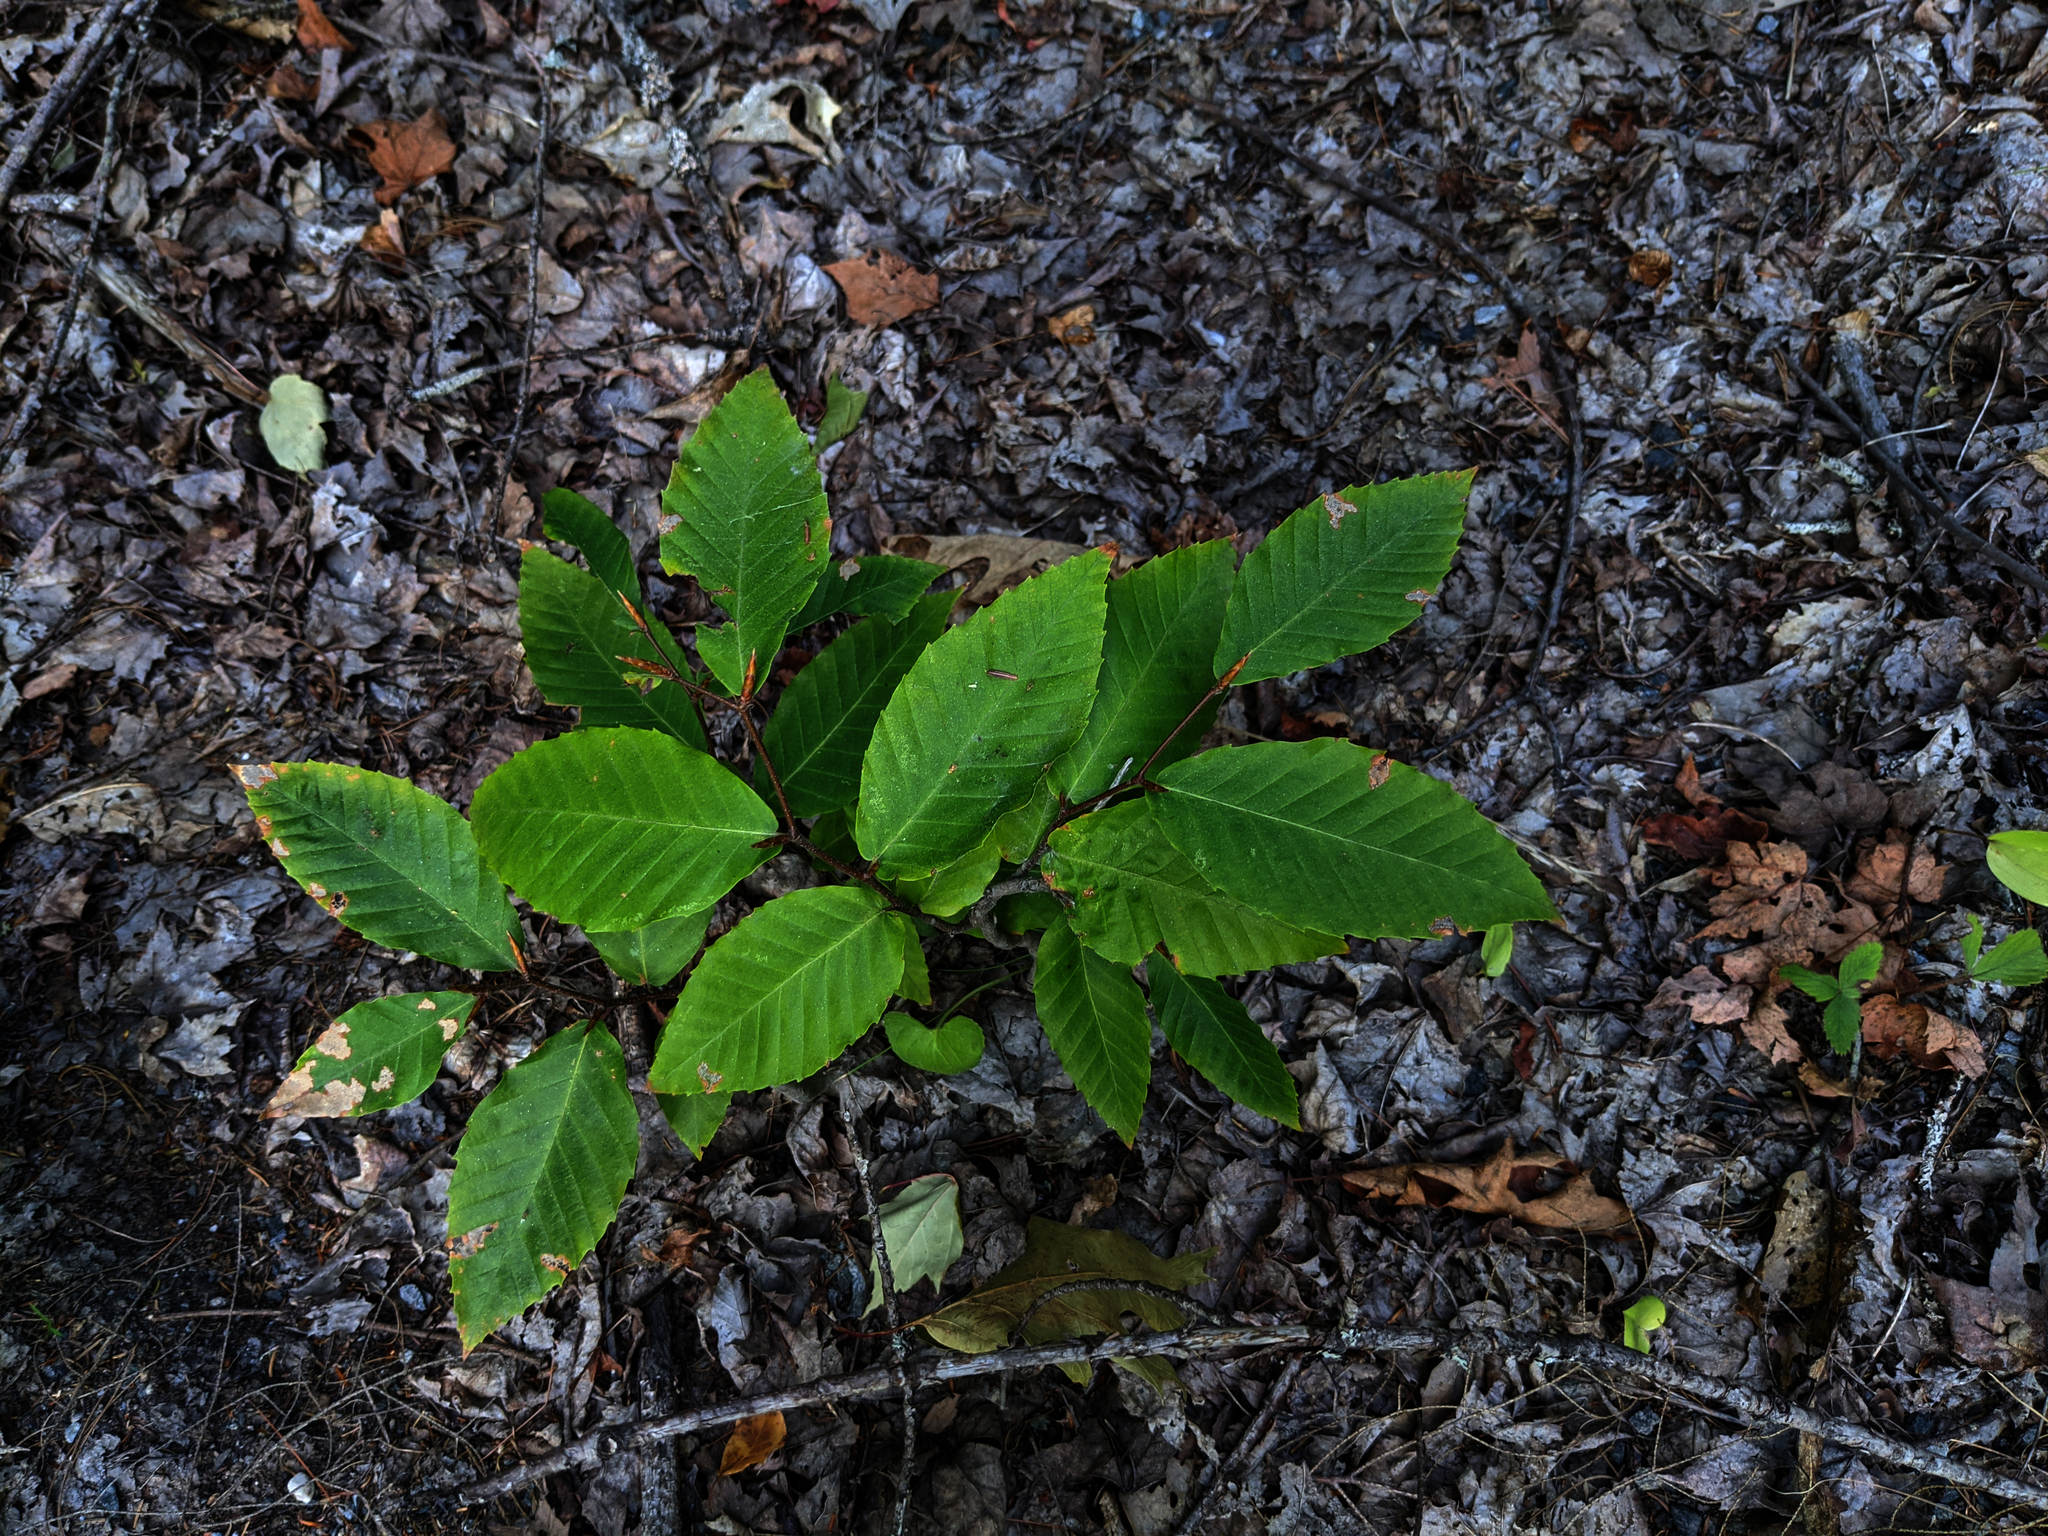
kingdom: Plantae
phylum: Tracheophyta
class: Magnoliopsida
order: Fagales
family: Fagaceae
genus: Fagus
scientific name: Fagus grandifolia
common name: American beech
